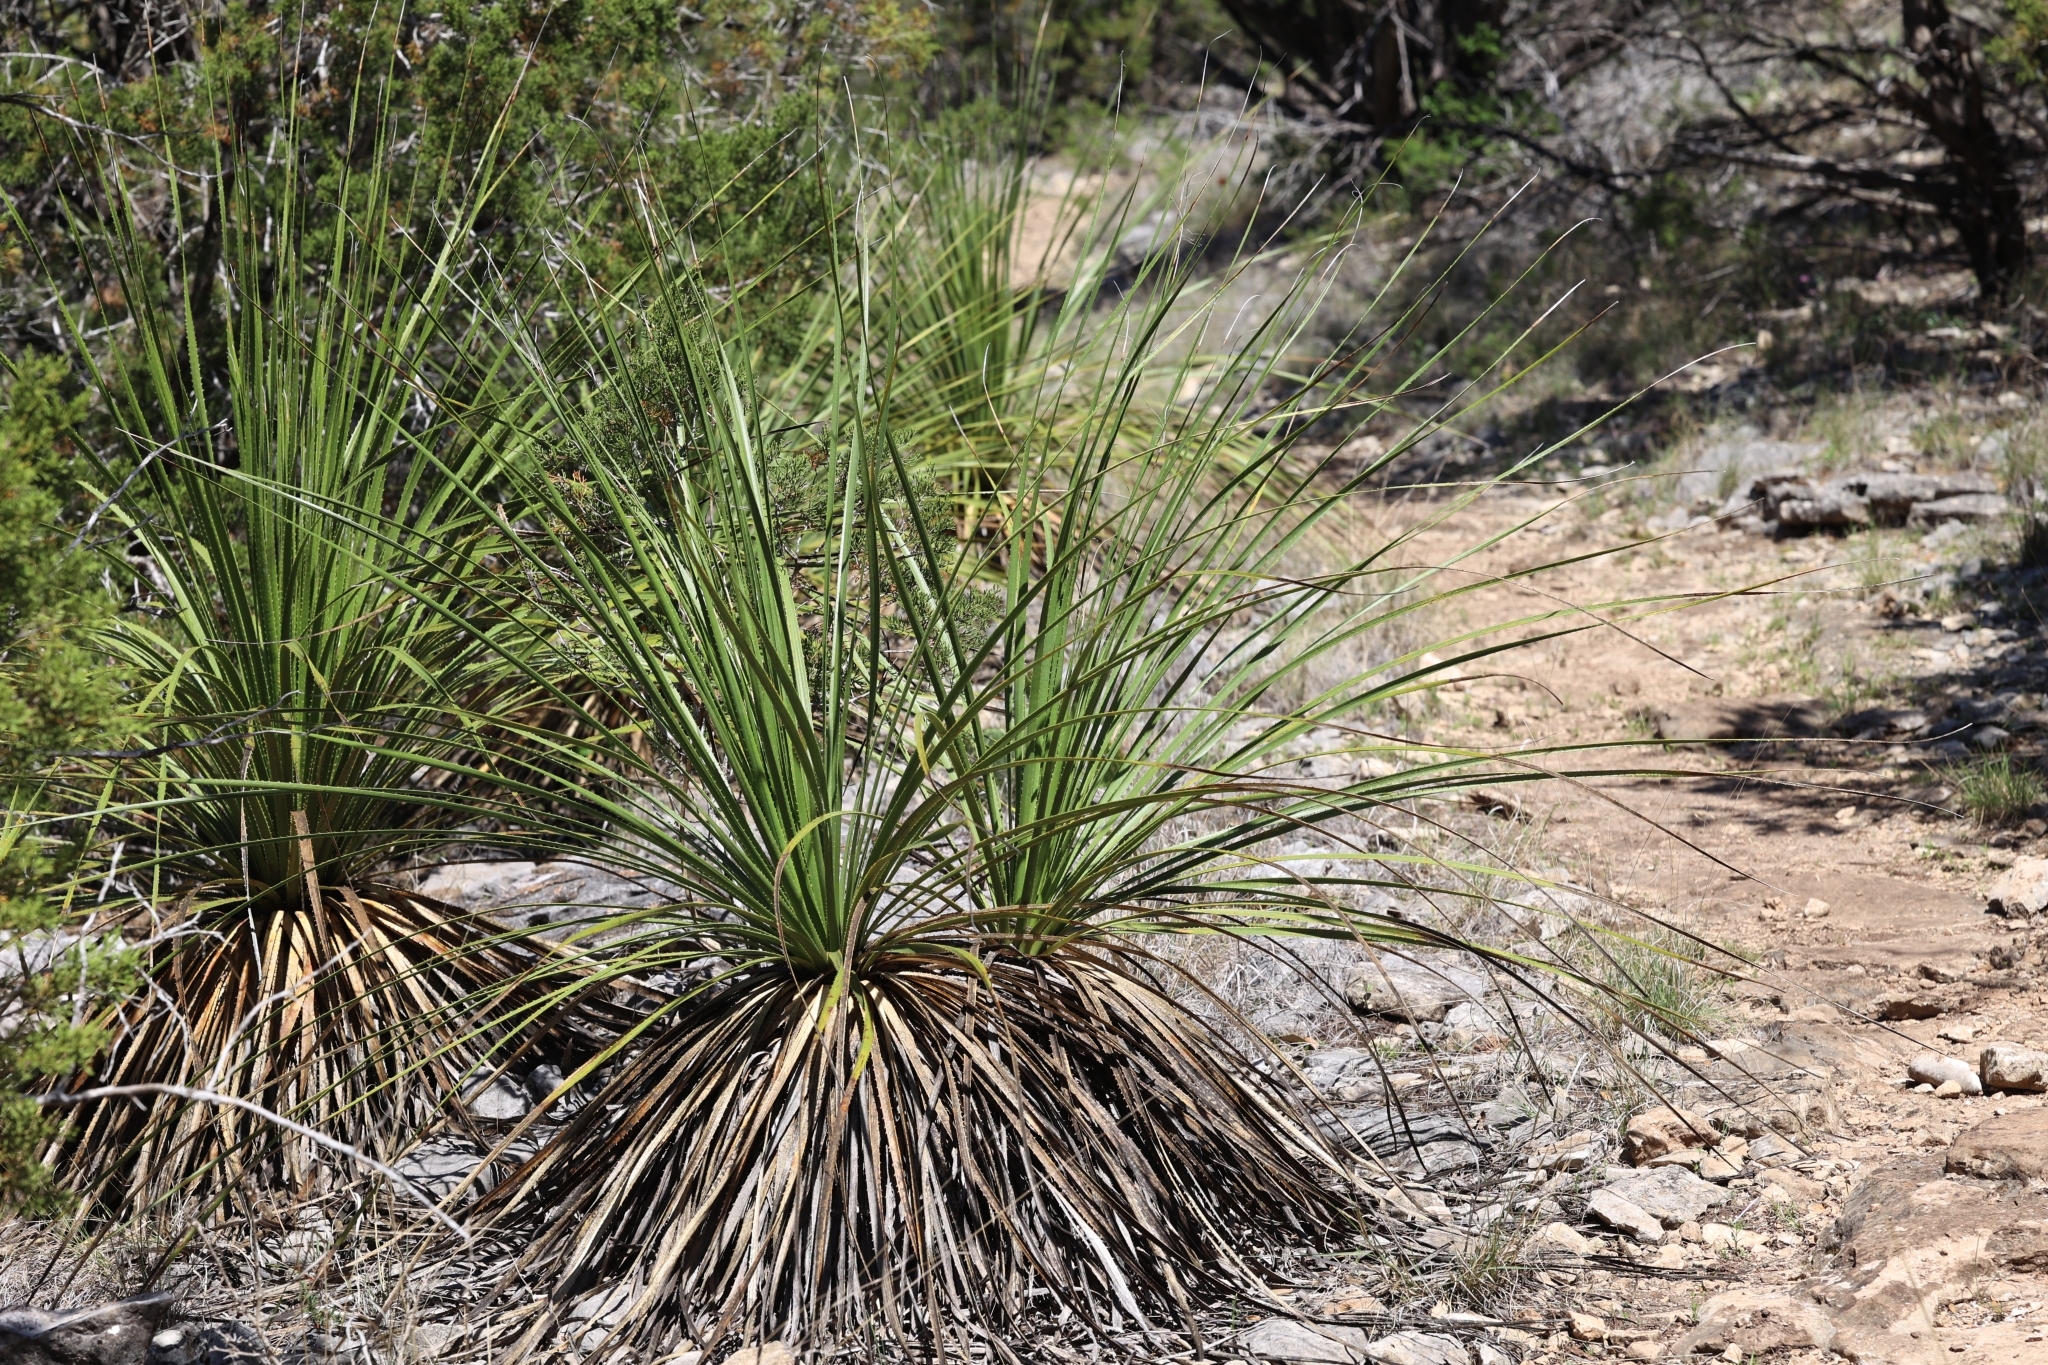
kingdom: Plantae
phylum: Tracheophyta
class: Liliopsida
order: Asparagales
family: Asparagaceae
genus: Dasylirion
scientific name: Dasylirion texanum
